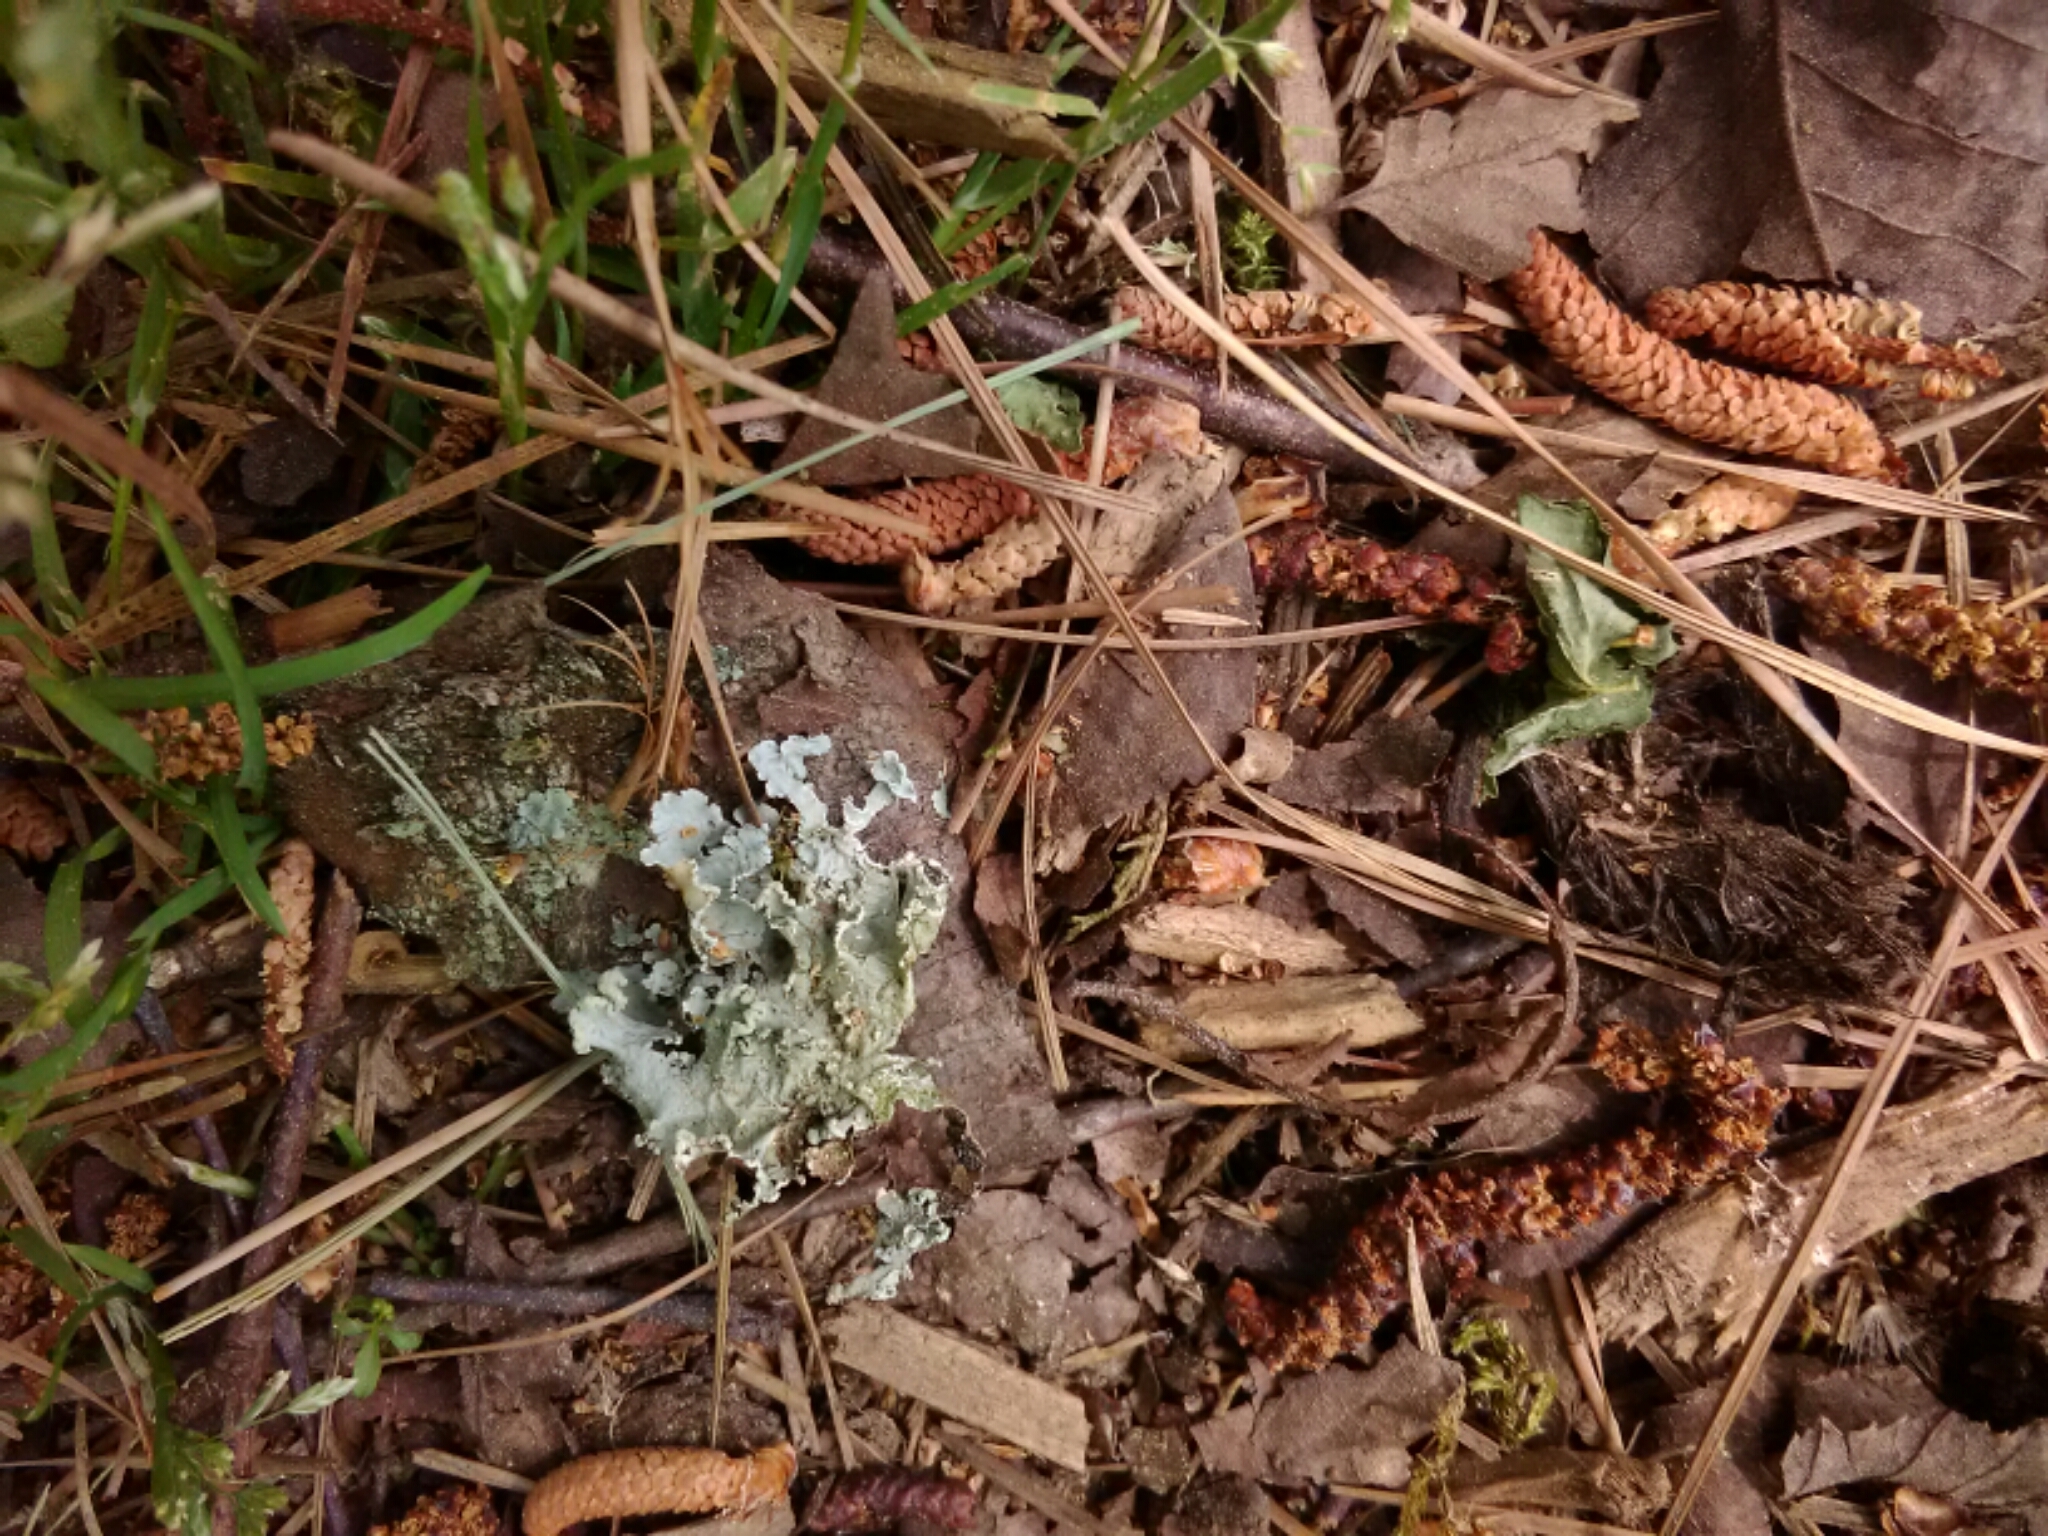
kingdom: Fungi
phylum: Ascomycota
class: Lecanoromycetes
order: Lecanorales
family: Parmeliaceae
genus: Parmotrema
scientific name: Parmotrema hypotropum
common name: Powdered ruffle lichen
